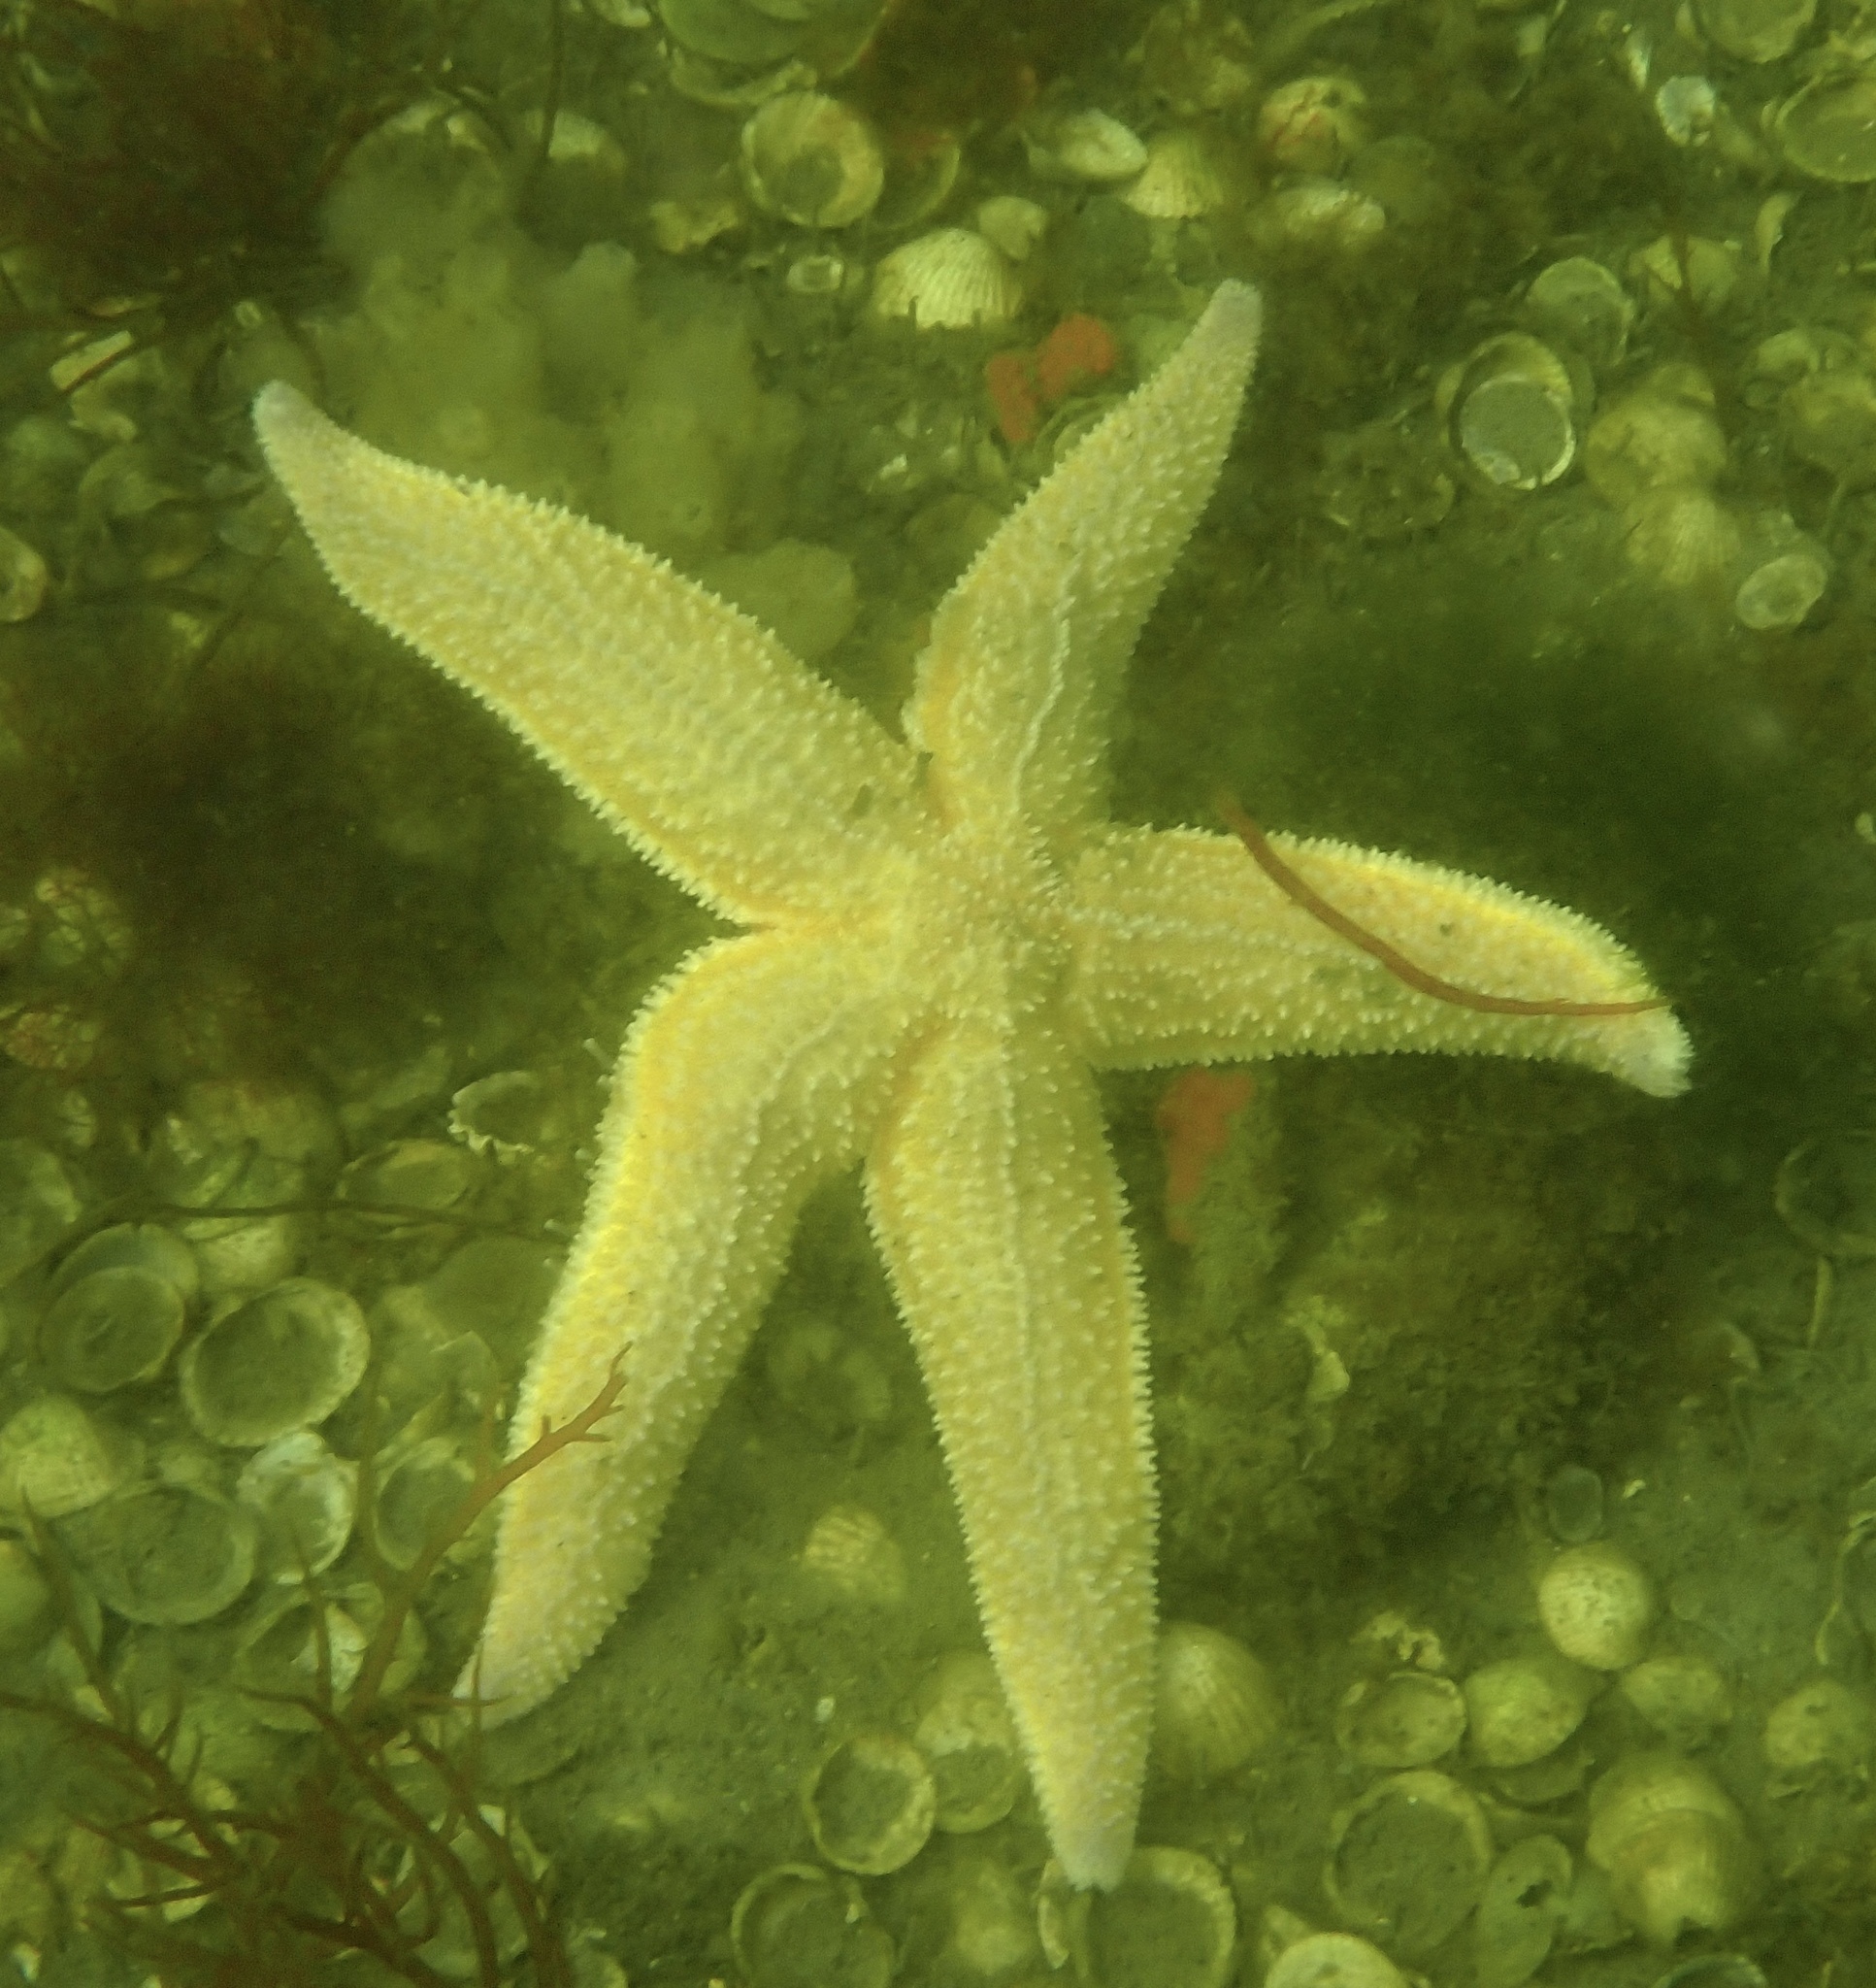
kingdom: Animalia
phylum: Echinodermata
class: Asteroidea
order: Forcipulatida
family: Asteriidae
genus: Asterias
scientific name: Asterias rubens
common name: Common starfish
